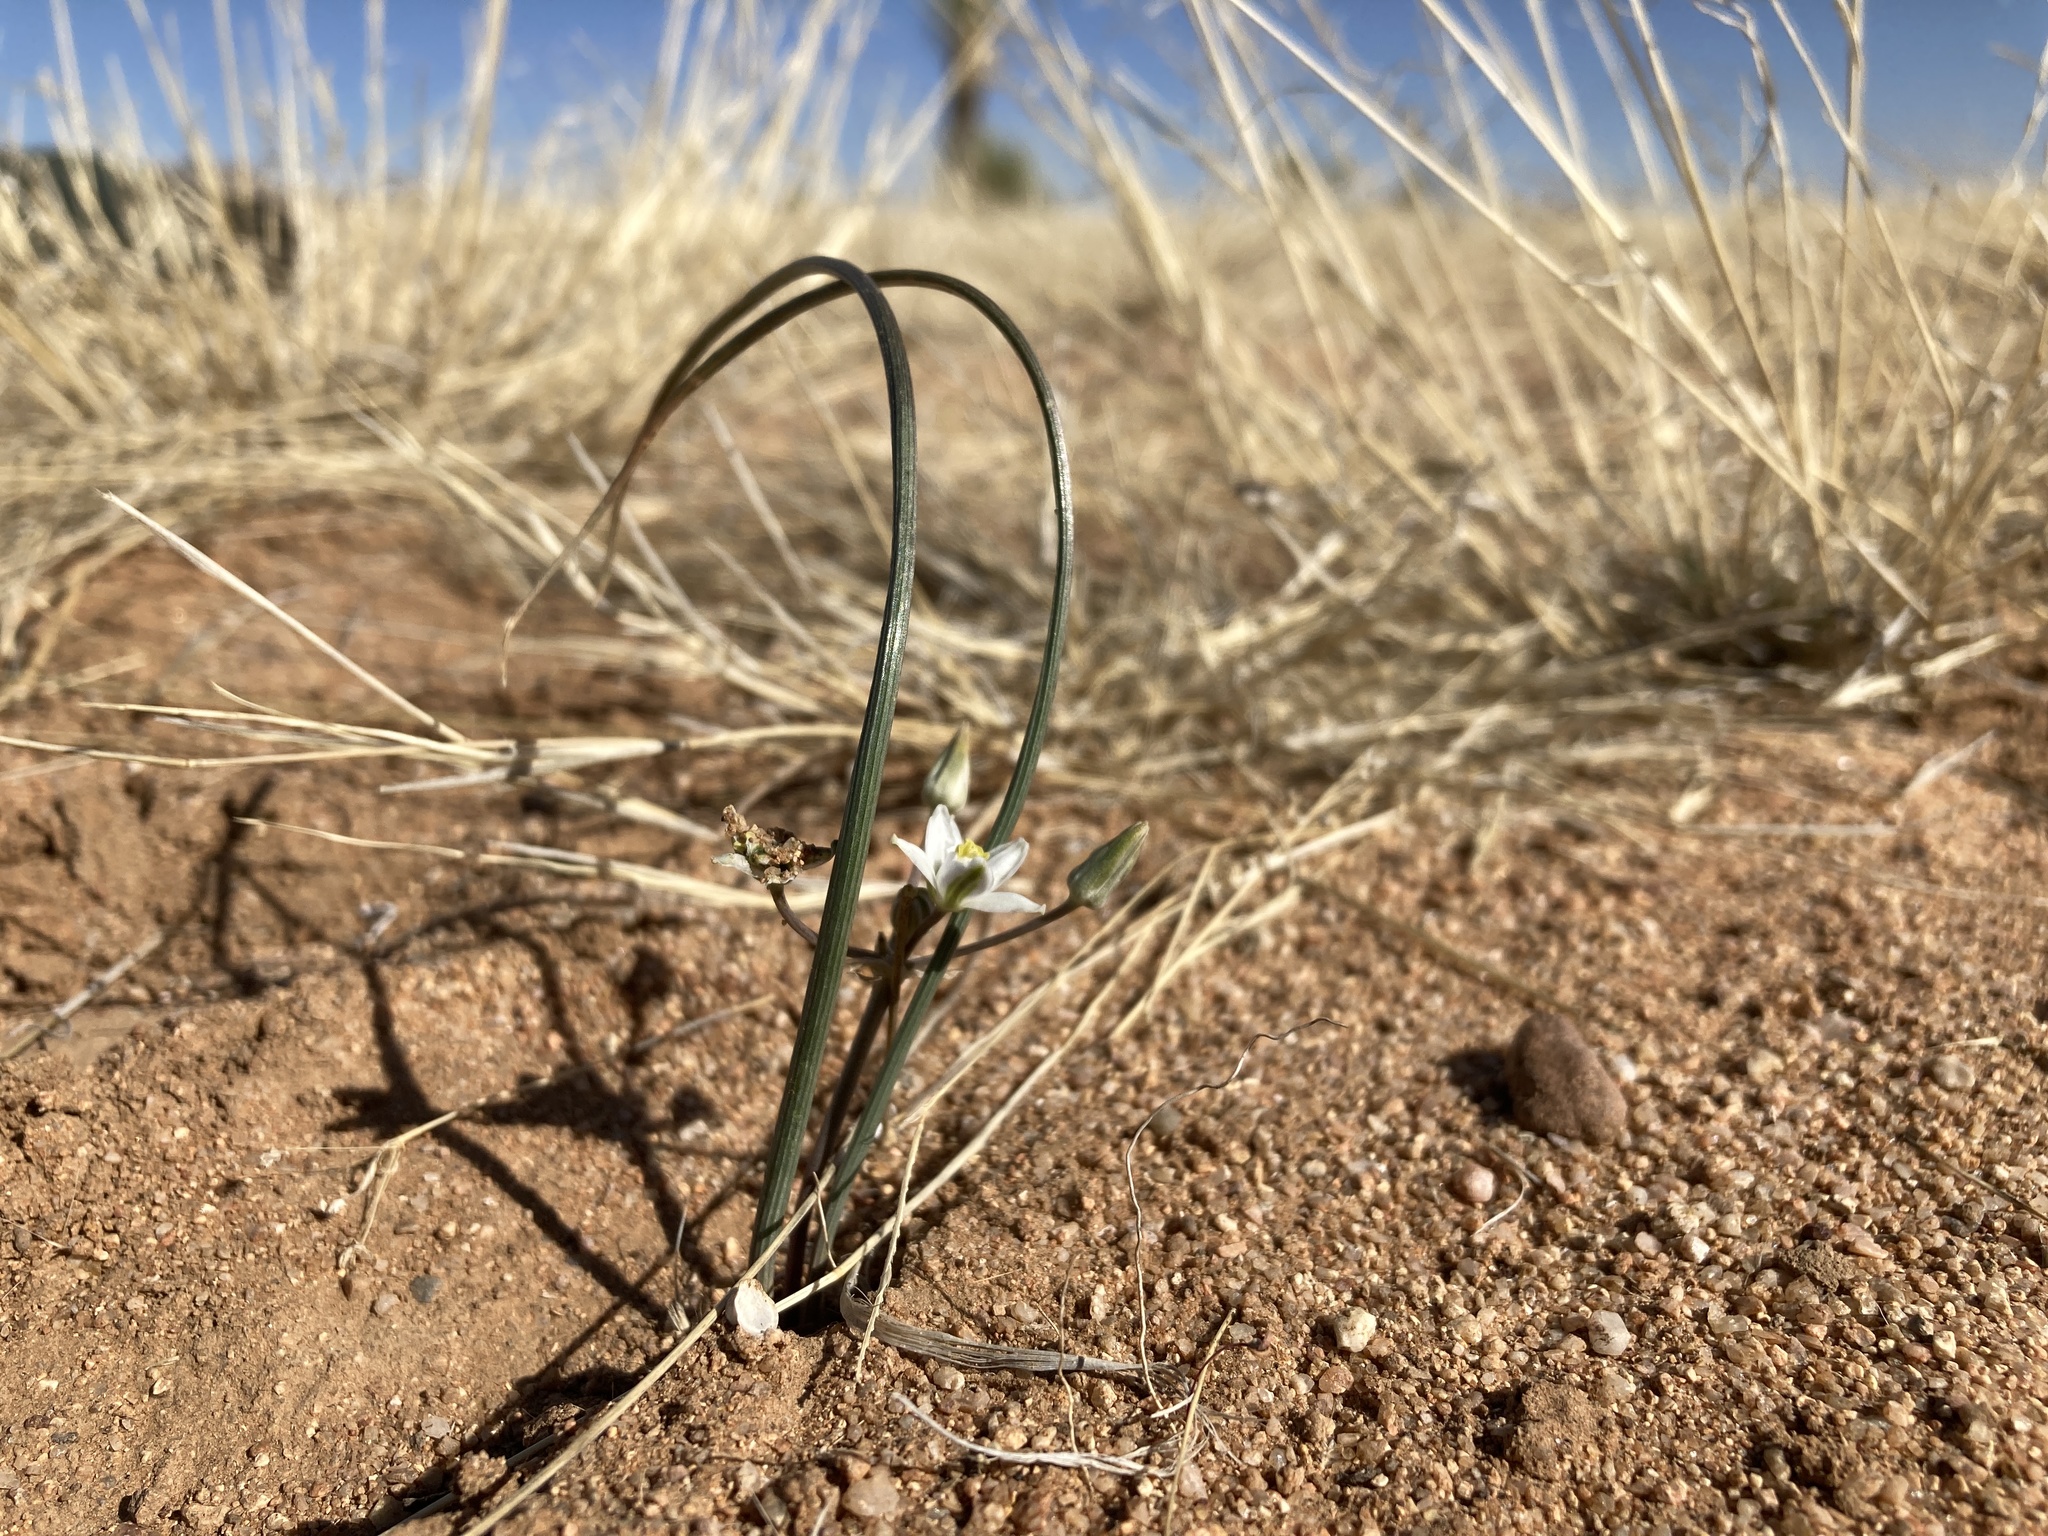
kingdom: Plantae
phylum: Tracheophyta
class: Liliopsida
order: Asparagales
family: Asparagaceae
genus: Muilla
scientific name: Muilla lordsburgana
